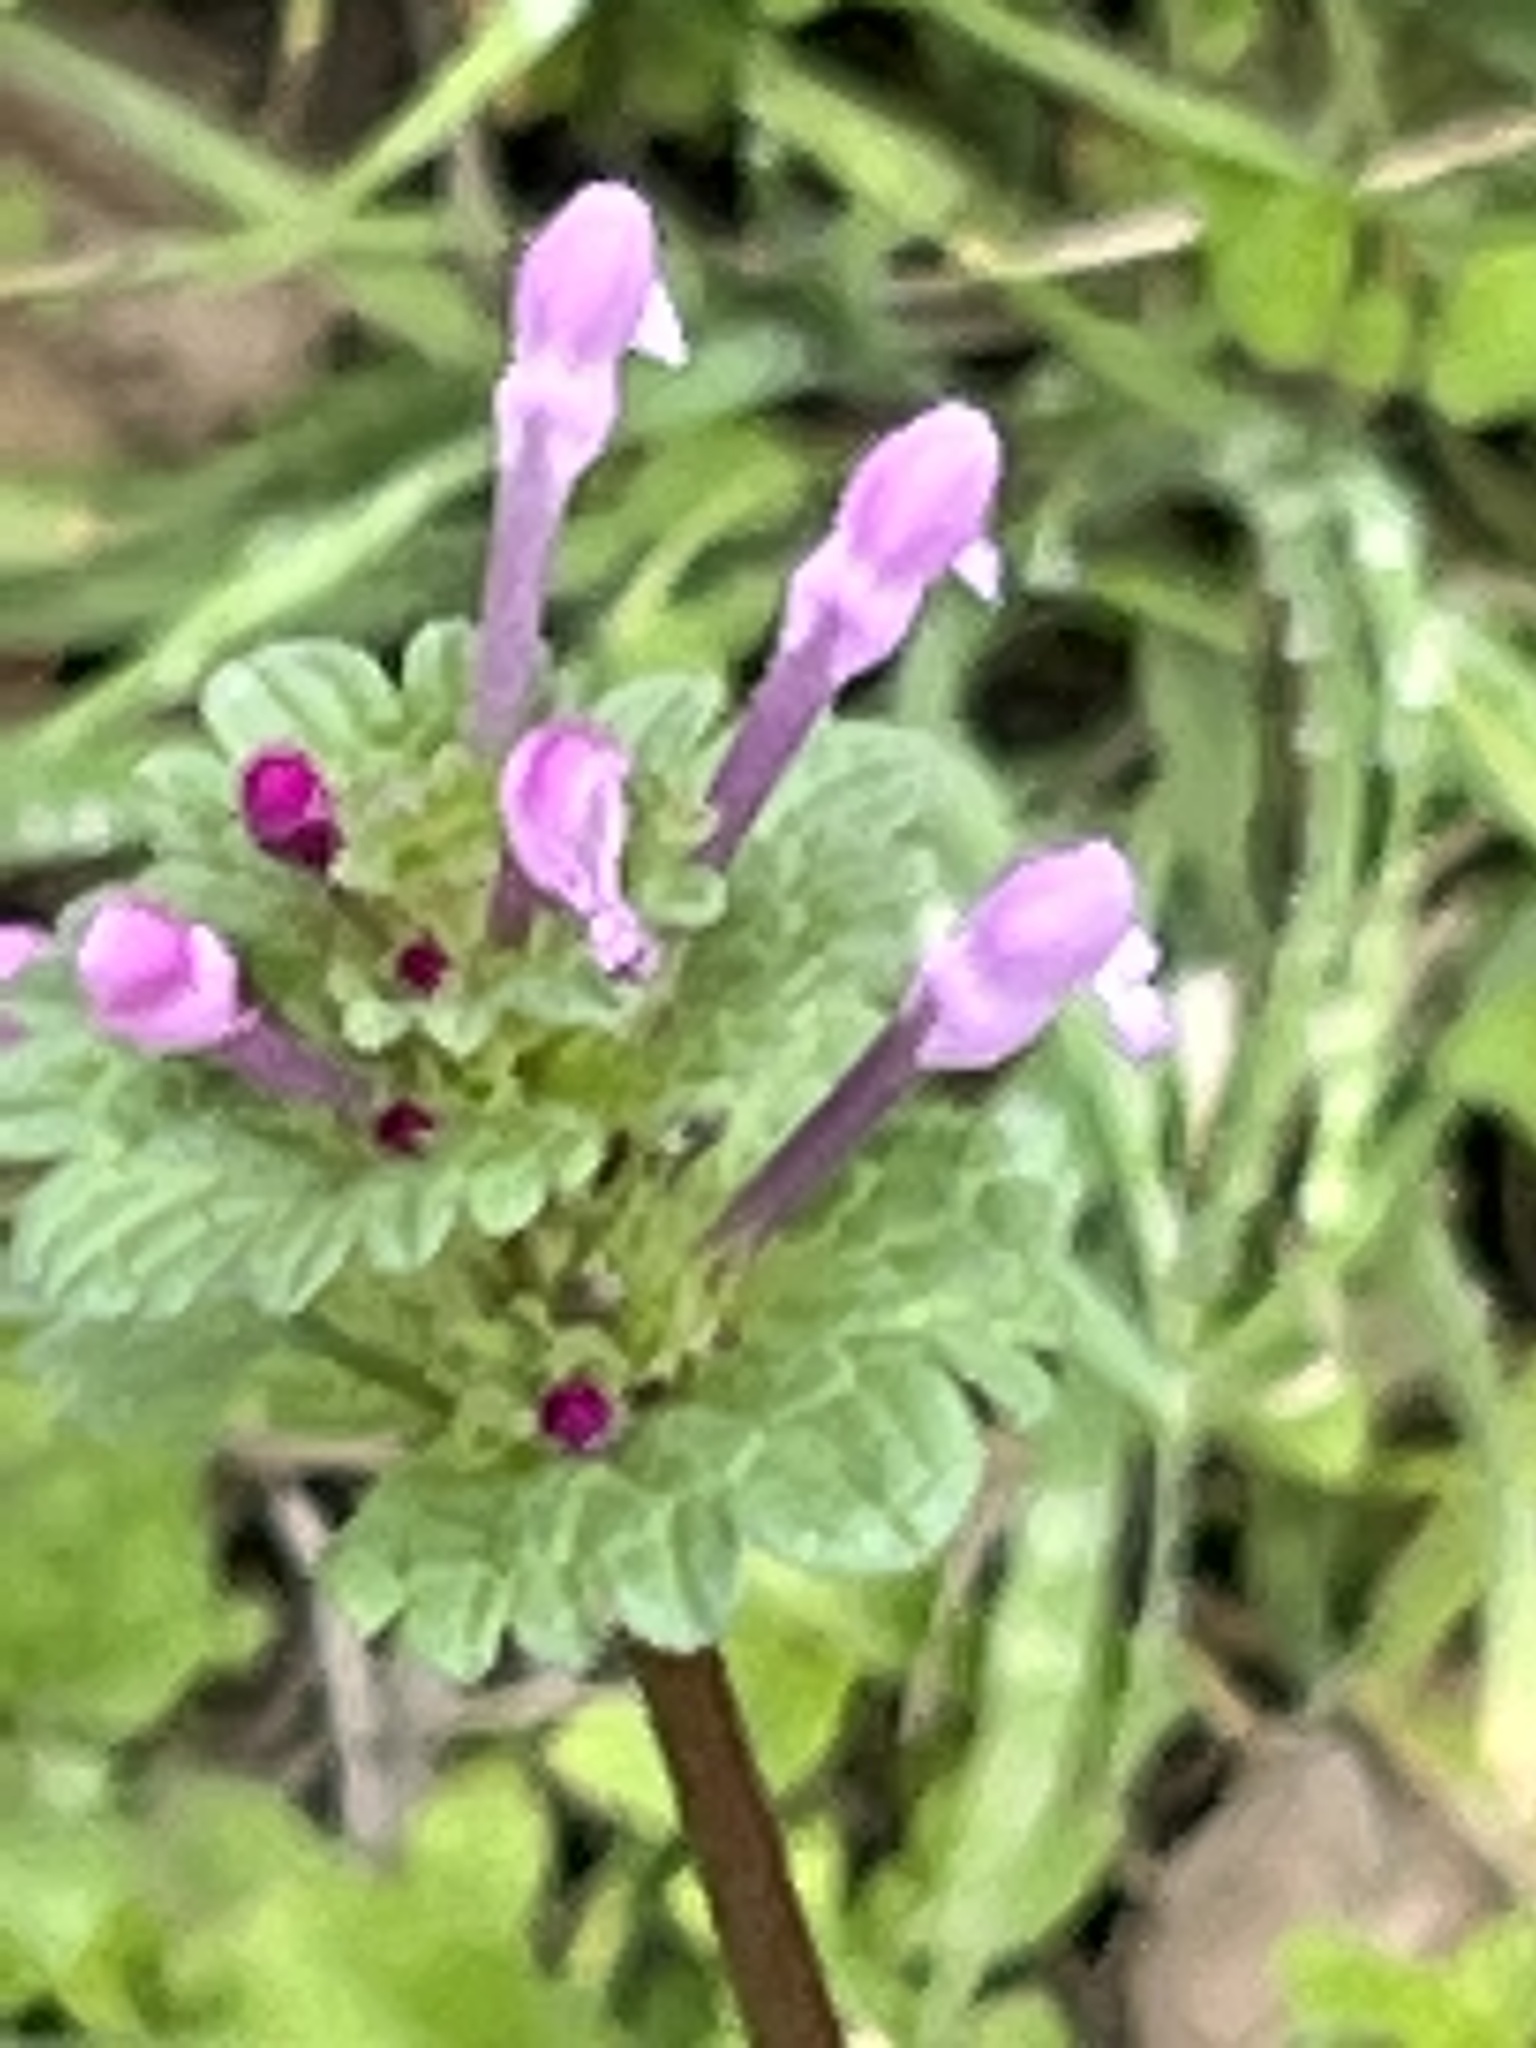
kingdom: Plantae
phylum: Tracheophyta
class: Magnoliopsida
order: Lamiales
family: Lamiaceae
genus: Lamium
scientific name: Lamium amplexicaule
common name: Henbit dead-nettle
